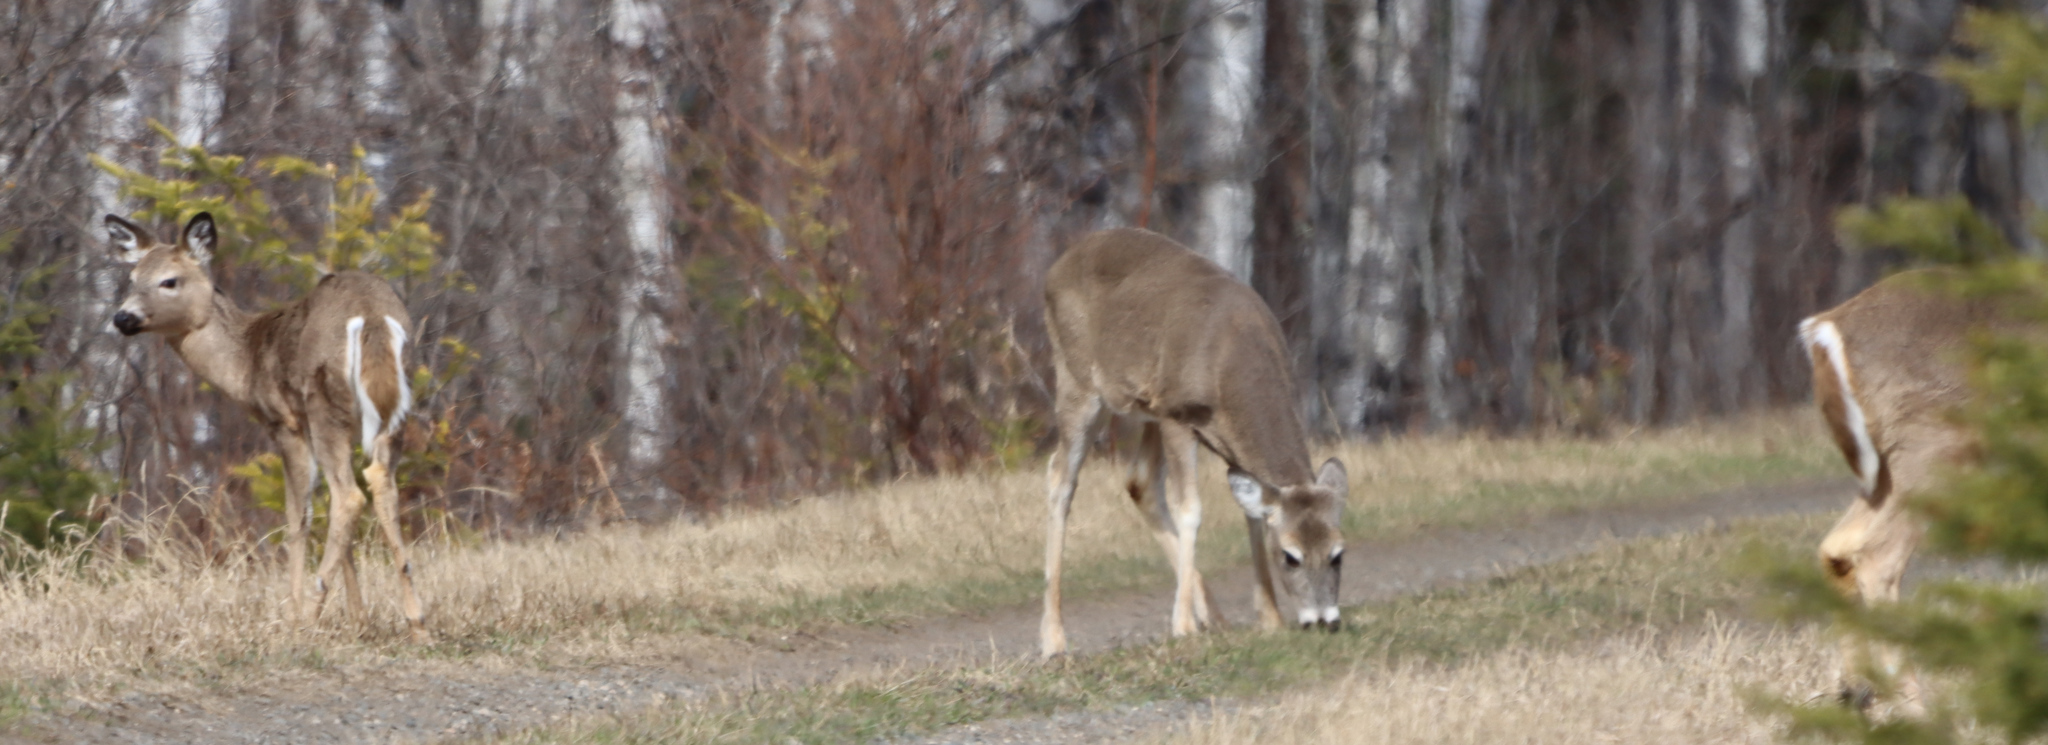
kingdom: Animalia
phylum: Chordata
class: Mammalia
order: Artiodactyla
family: Cervidae
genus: Odocoileus
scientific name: Odocoileus virginianus
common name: White-tailed deer
